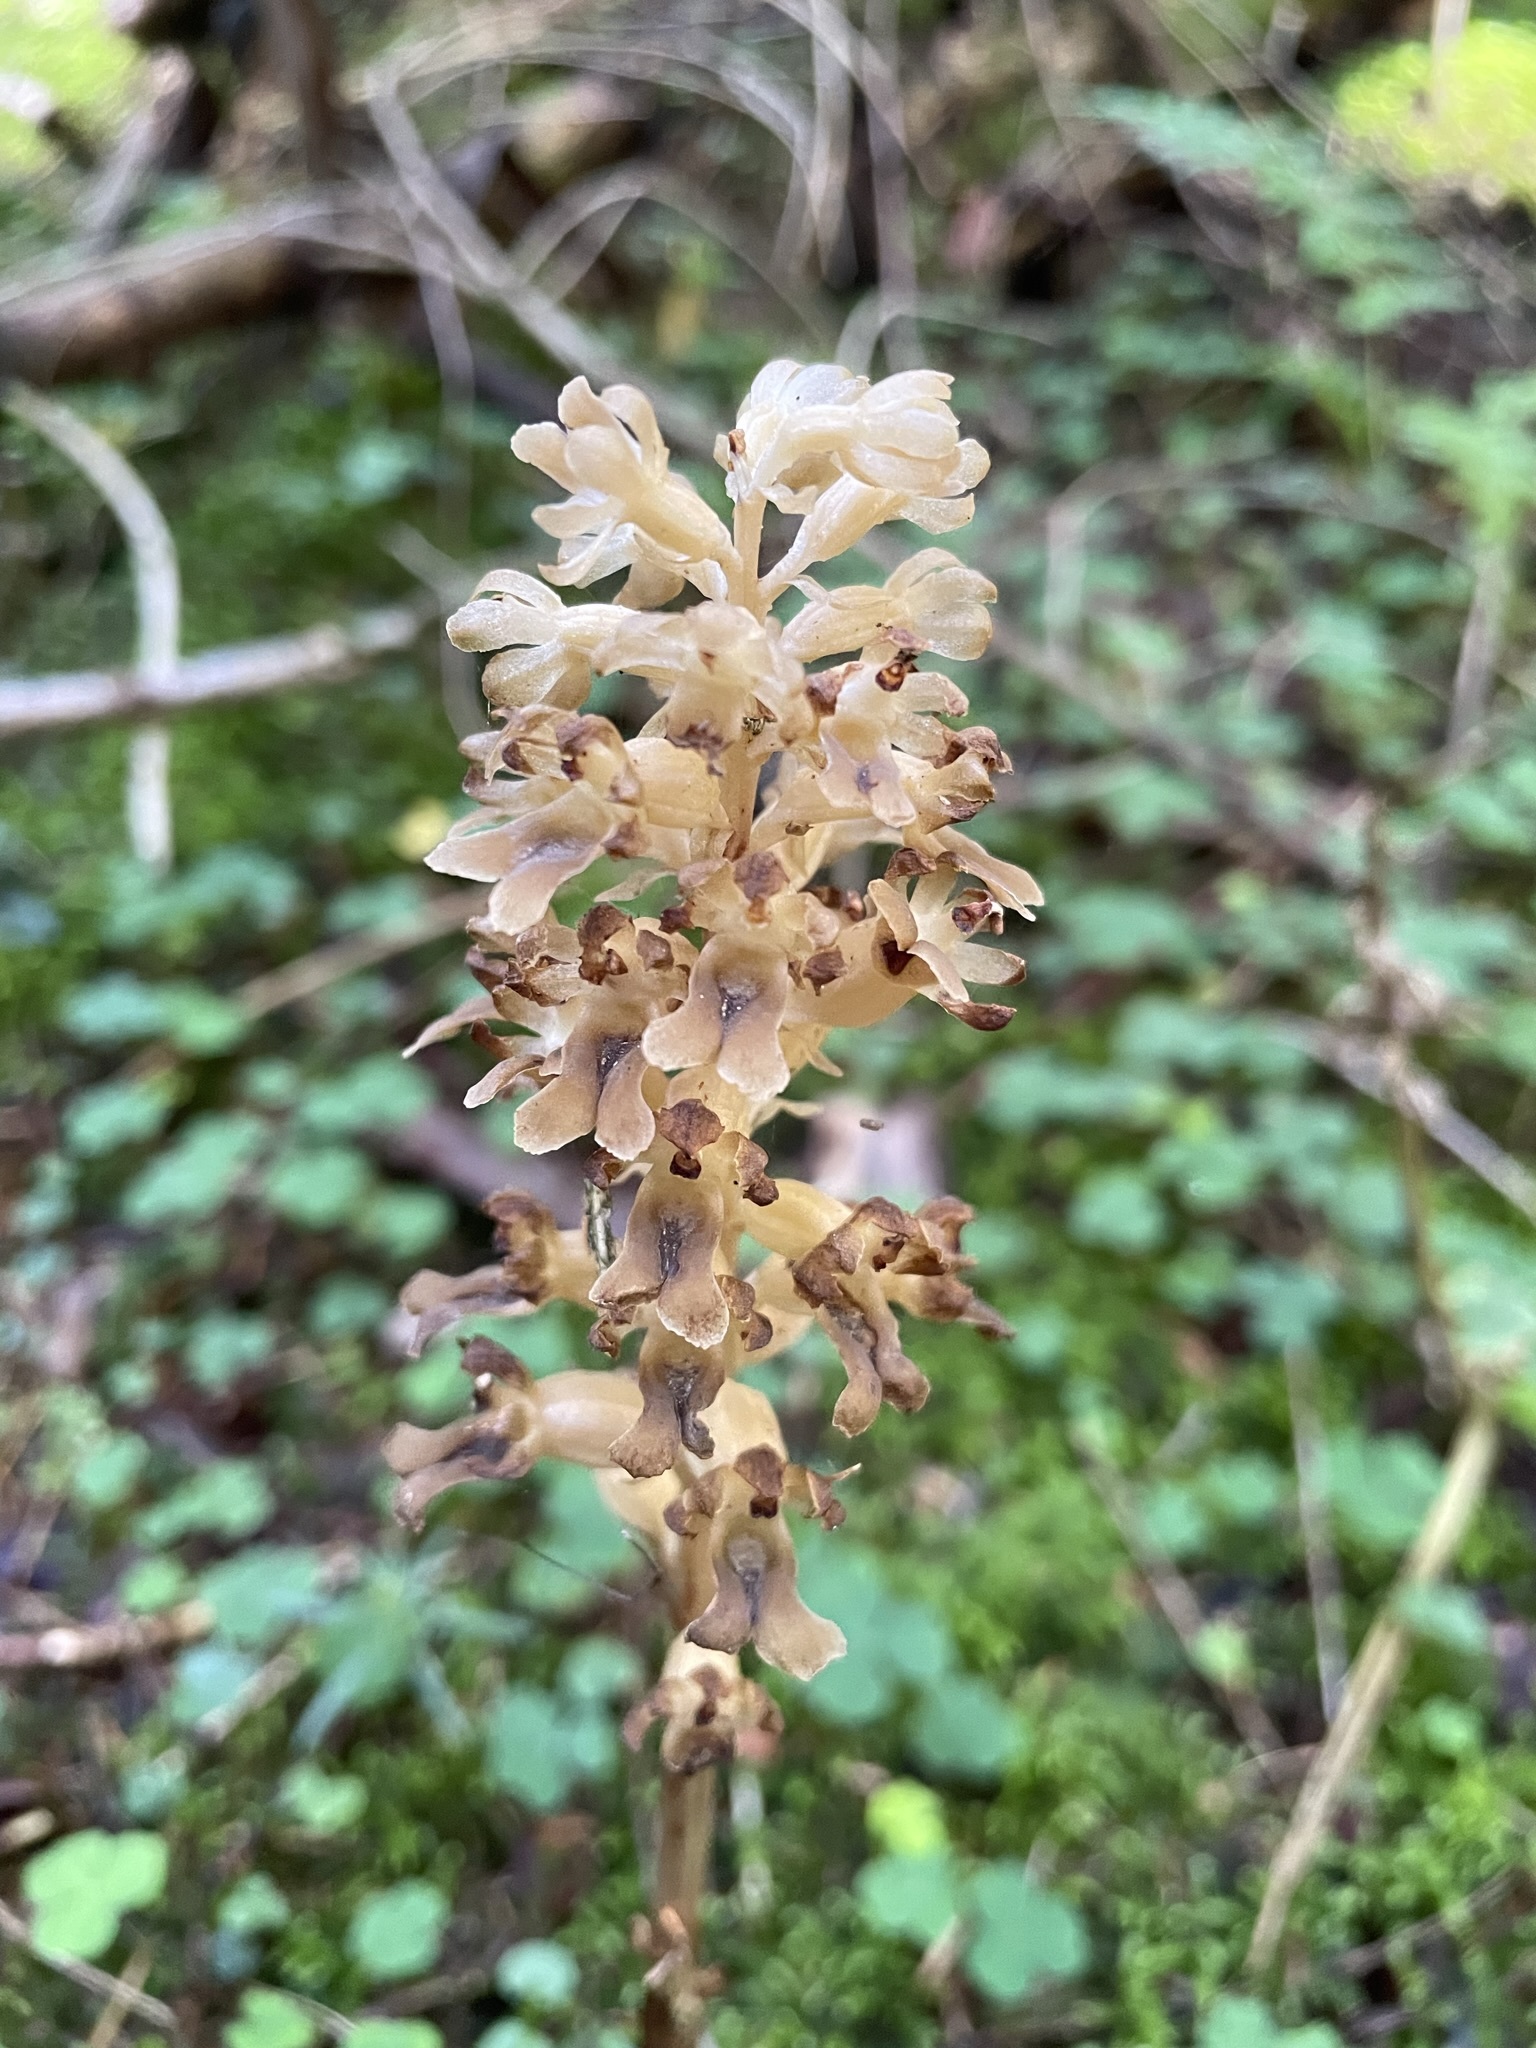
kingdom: Plantae
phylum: Tracheophyta
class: Liliopsida
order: Asparagales
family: Orchidaceae
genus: Neottia
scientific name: Neottia nidus-avis
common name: Bird's-nest orchid
